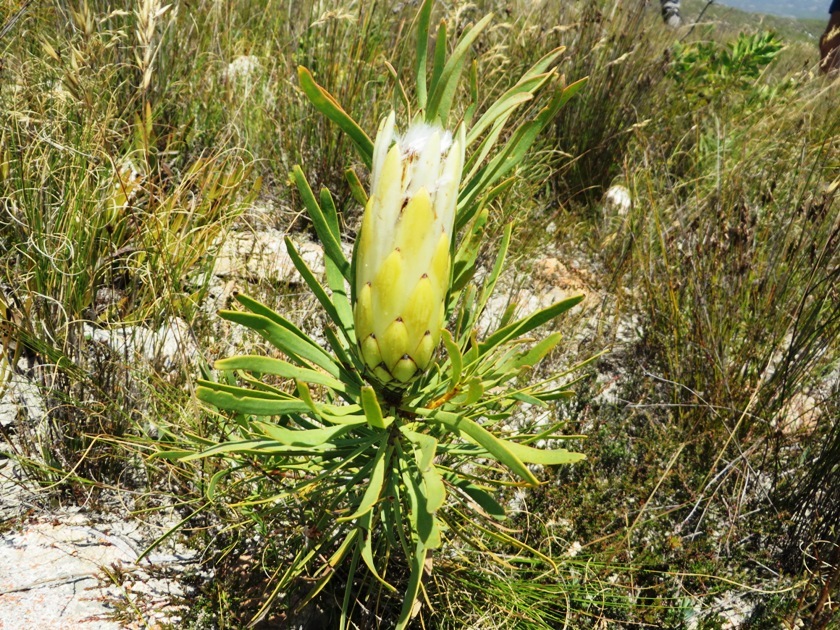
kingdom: Plantae
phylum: Tracheophyta
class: Magnoliopsida
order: Proteales
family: Proteaceae
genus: Protea
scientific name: Protea
